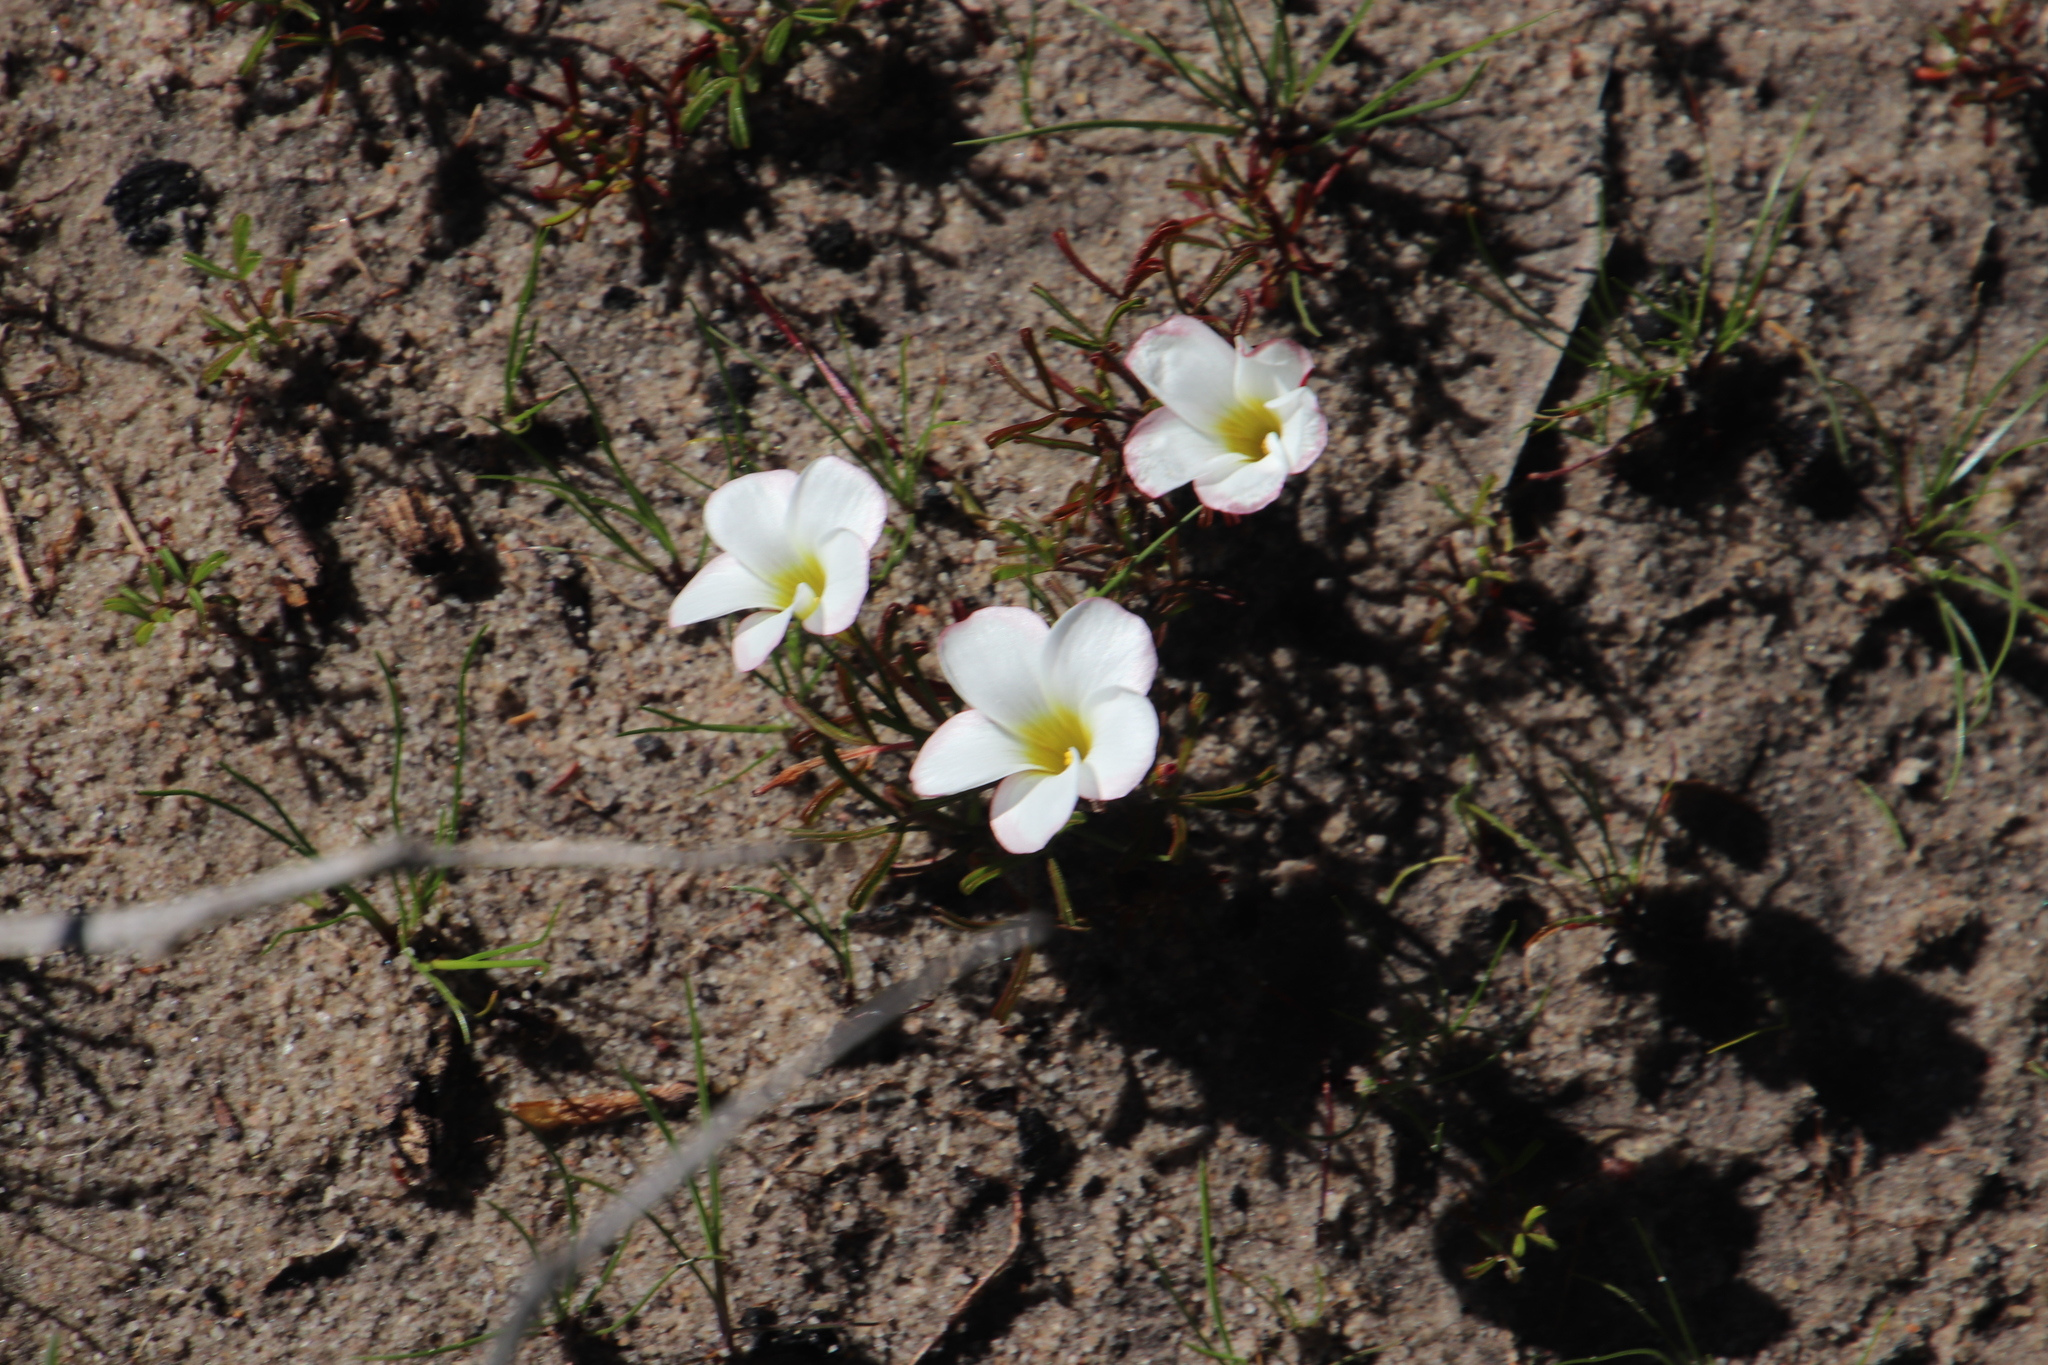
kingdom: Plantae
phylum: Tracheophyta
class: Magnoliopsida
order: Oxalidales
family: Oxalidaceae
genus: Oxalis
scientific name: Oxalis versicolor
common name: Peppermint rock oxalis
